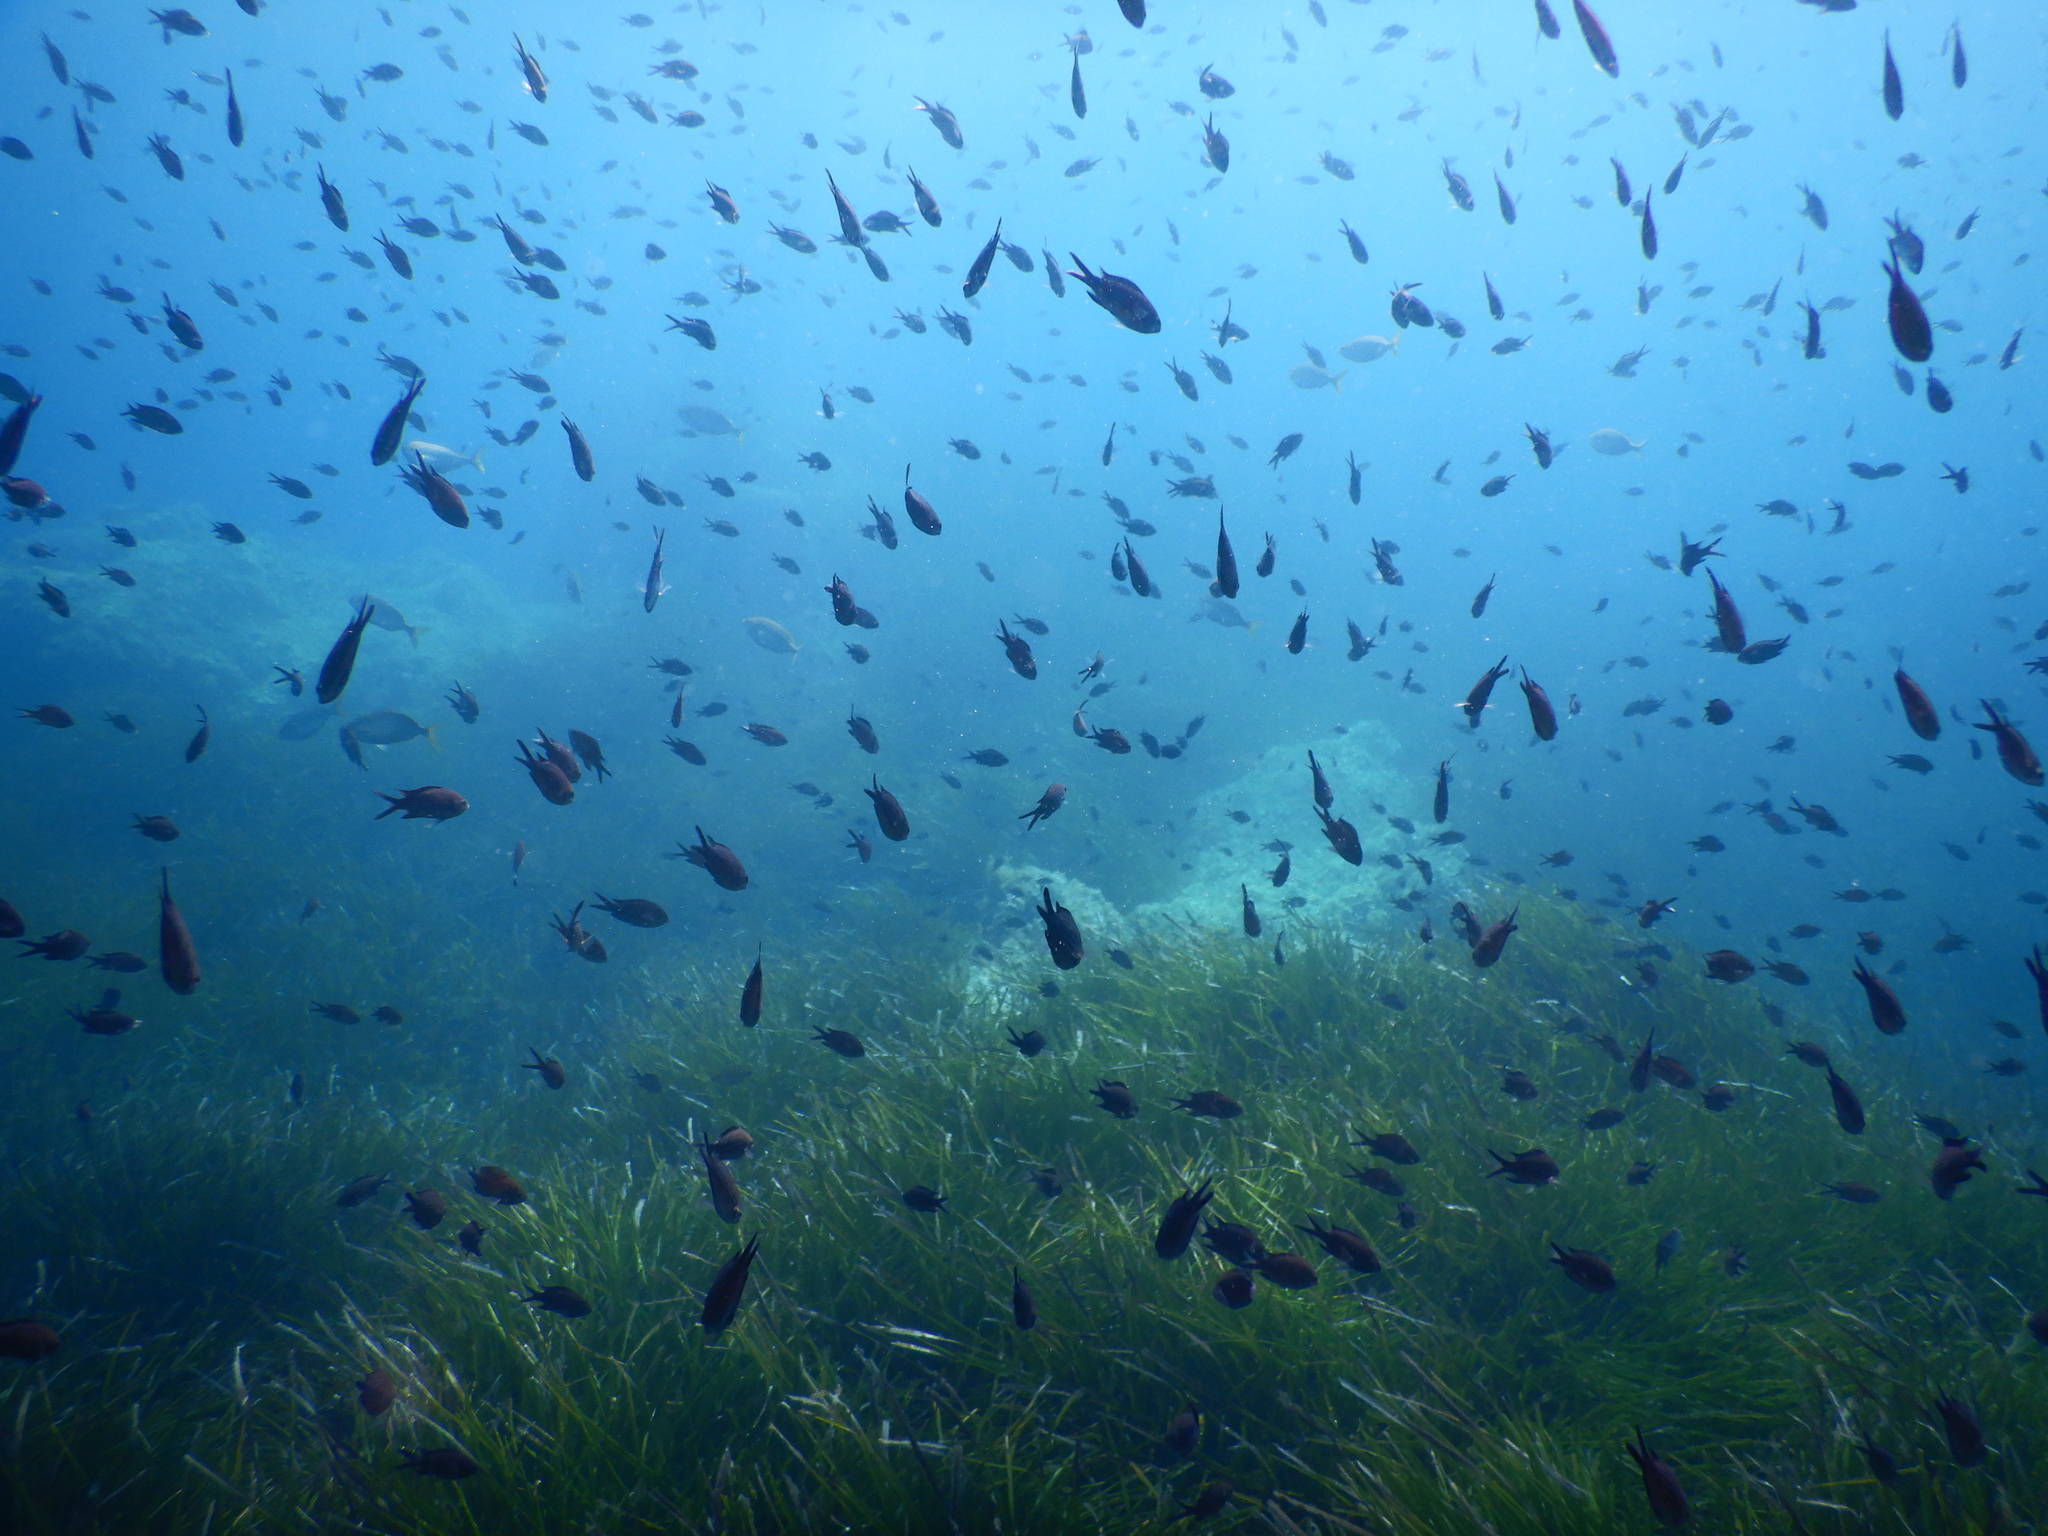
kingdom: Animalia
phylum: Chordata
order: Perciformes
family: Pomacentridae
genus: Chromis
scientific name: Chromis chromis
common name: Damselfish
